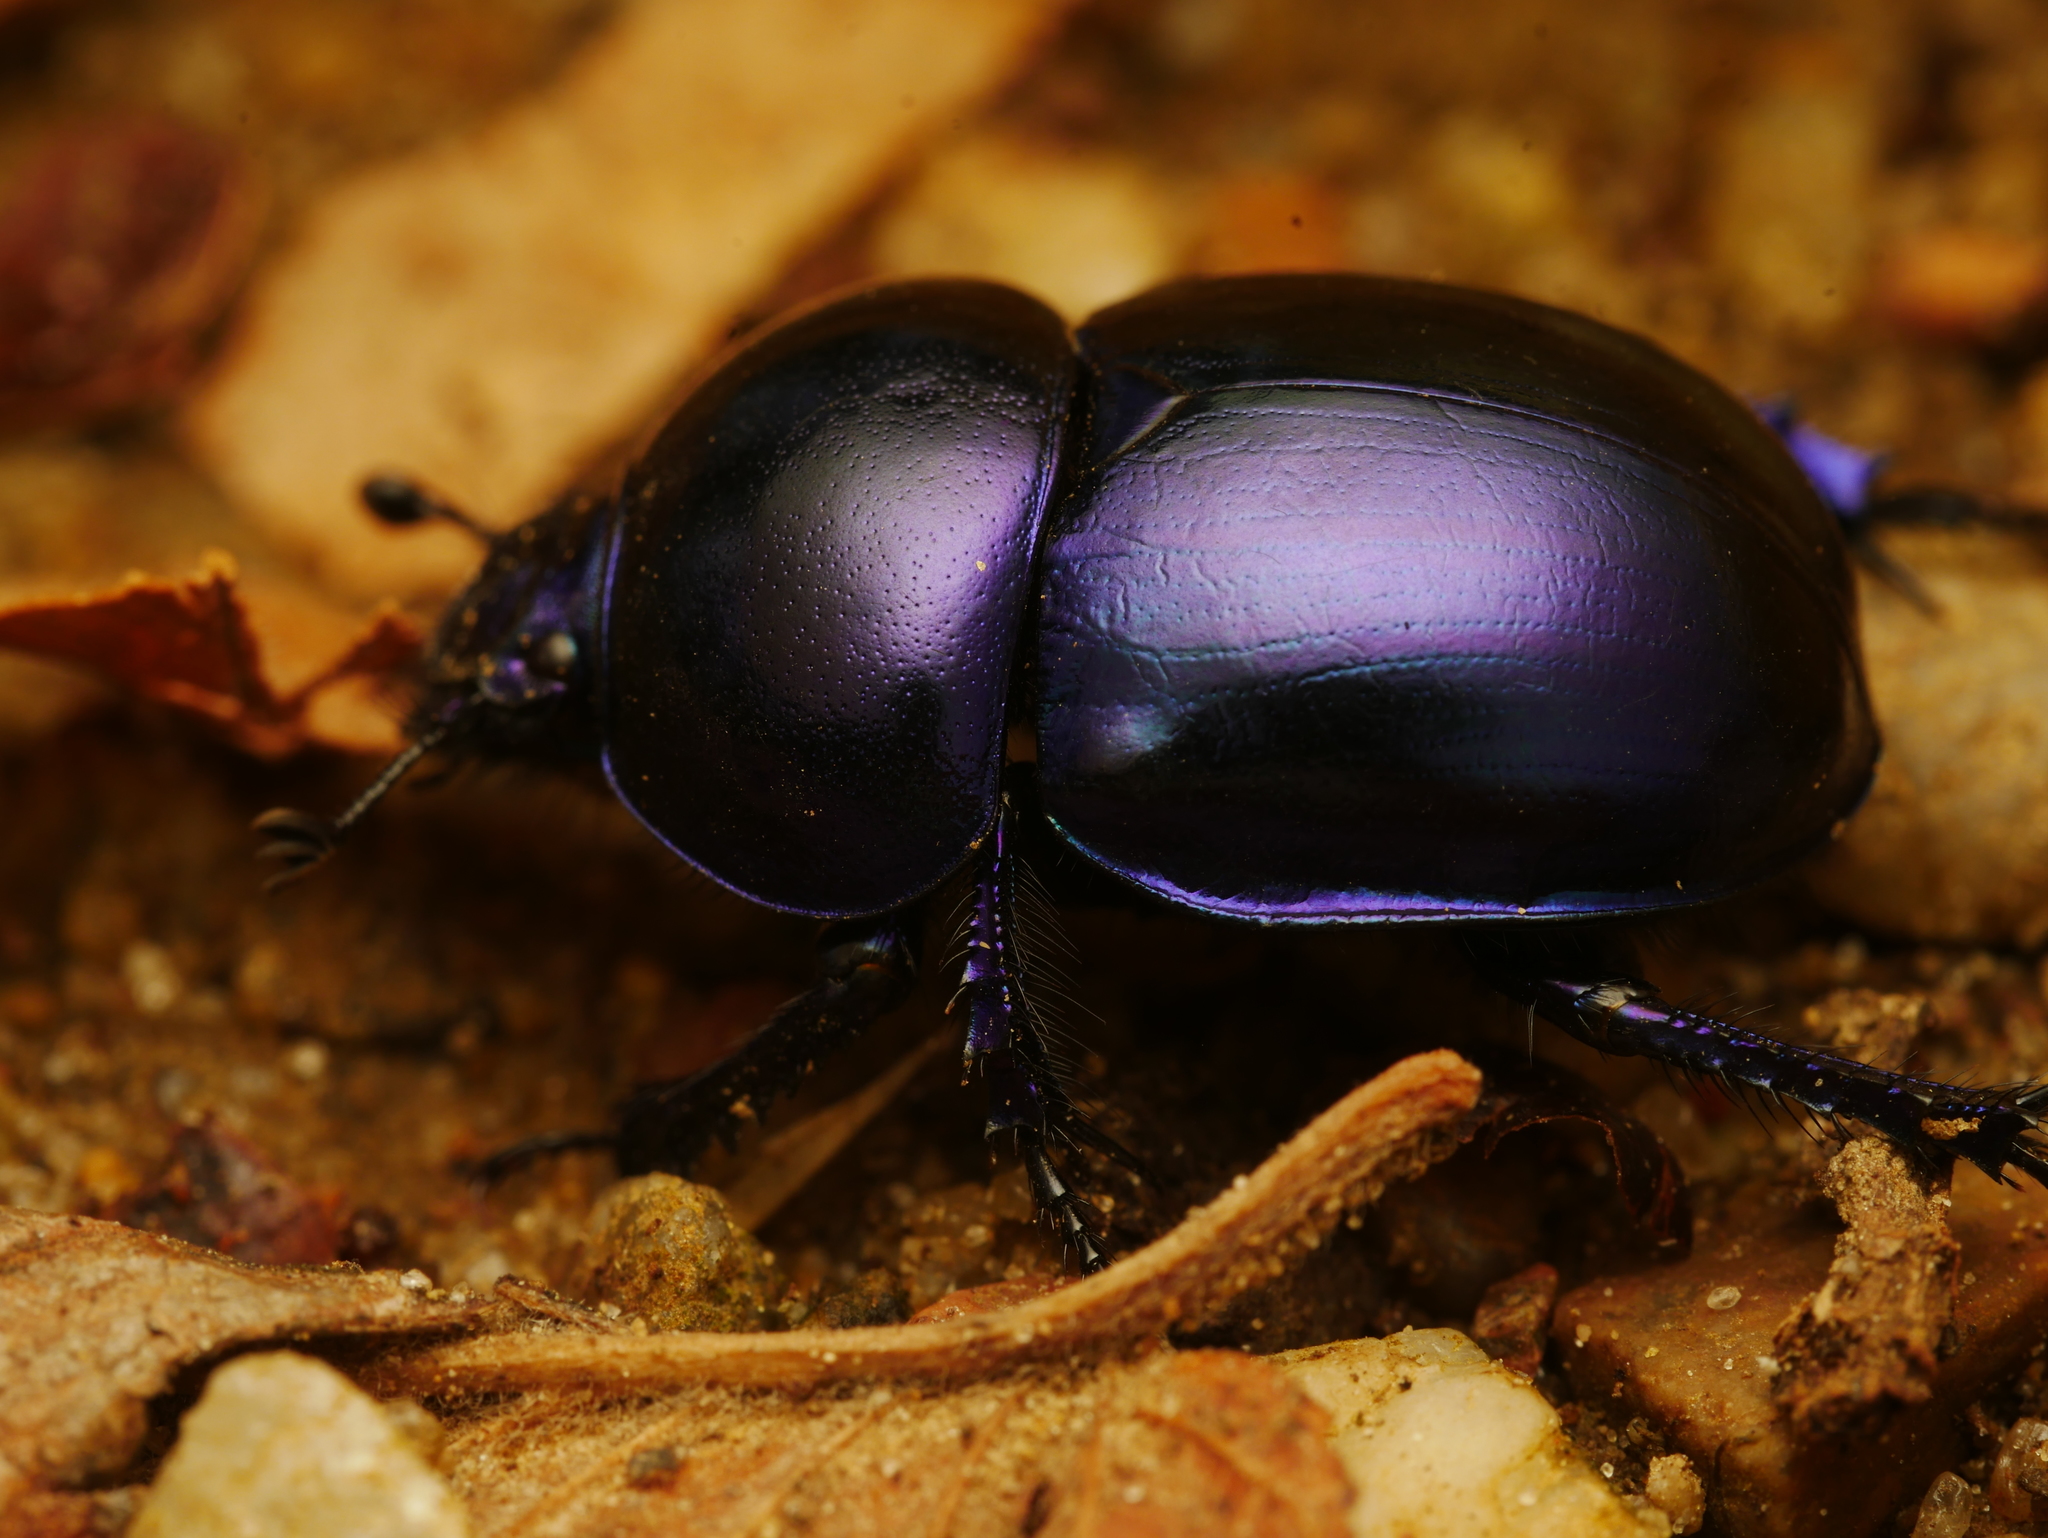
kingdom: Animalia
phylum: Arthropoda
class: Insecta
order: Coleoptera
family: Geotrupidae
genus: Trypocopris
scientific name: Trypocopris vernalis
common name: Spring dumbledor
